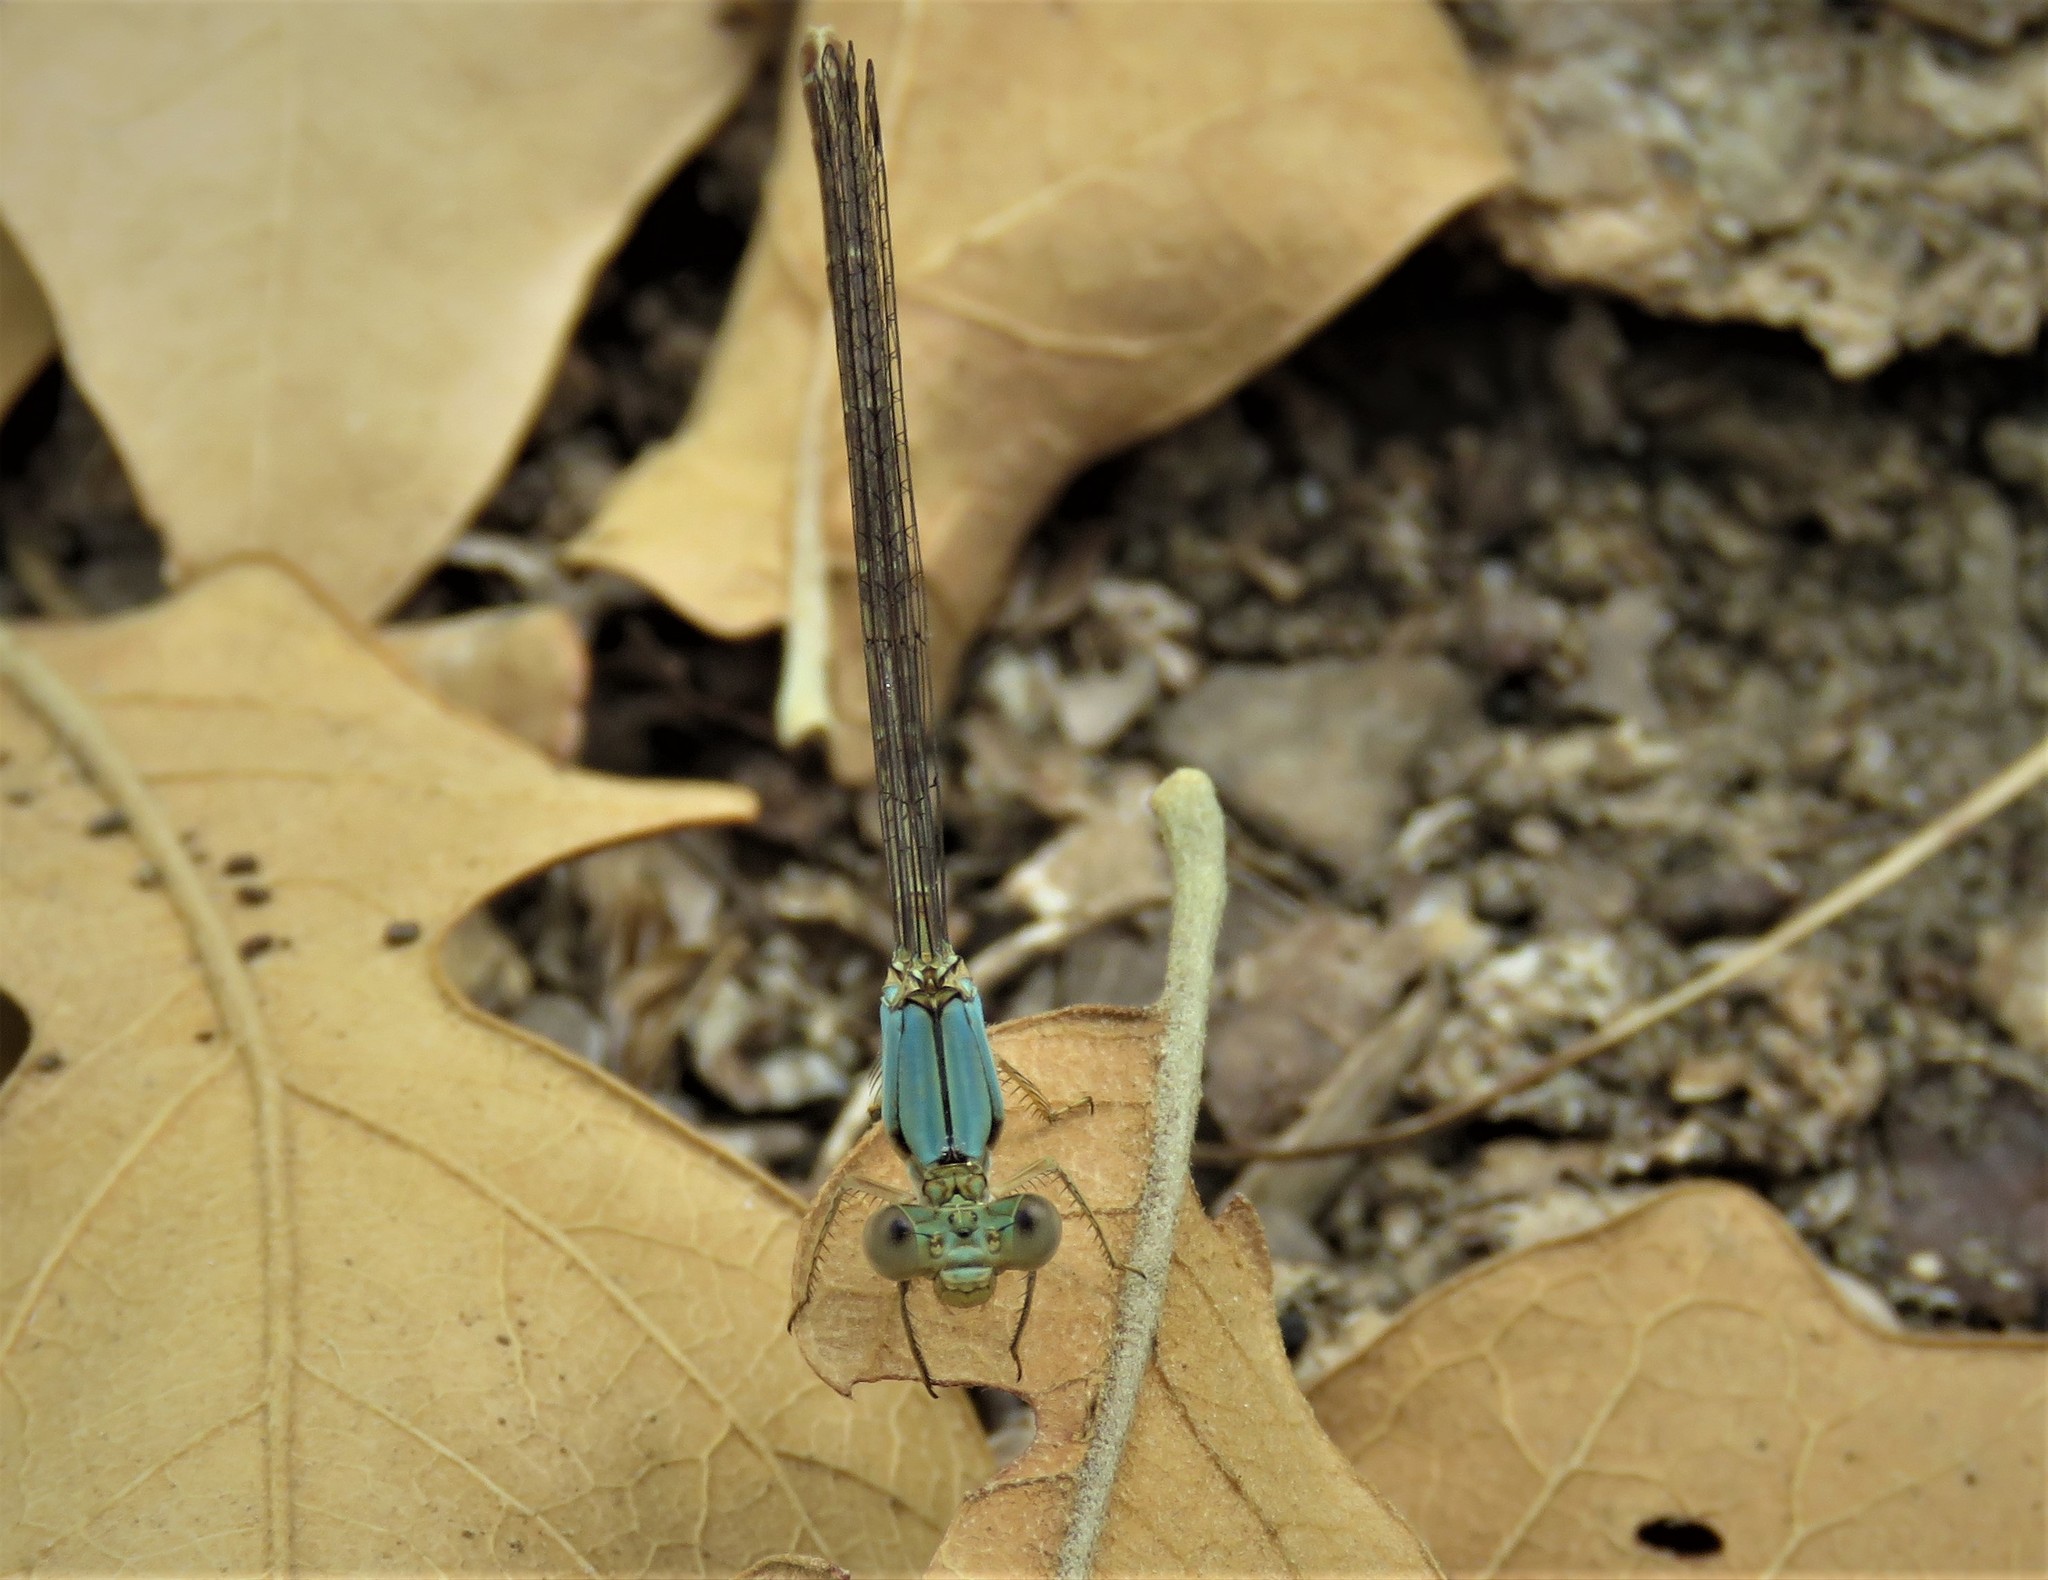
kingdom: Animalia
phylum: Arthropoda
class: Insecta
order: Odonata
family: Coenagrionidae
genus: Argia
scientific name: Argia apicalis
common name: Blue-fronted dancer
